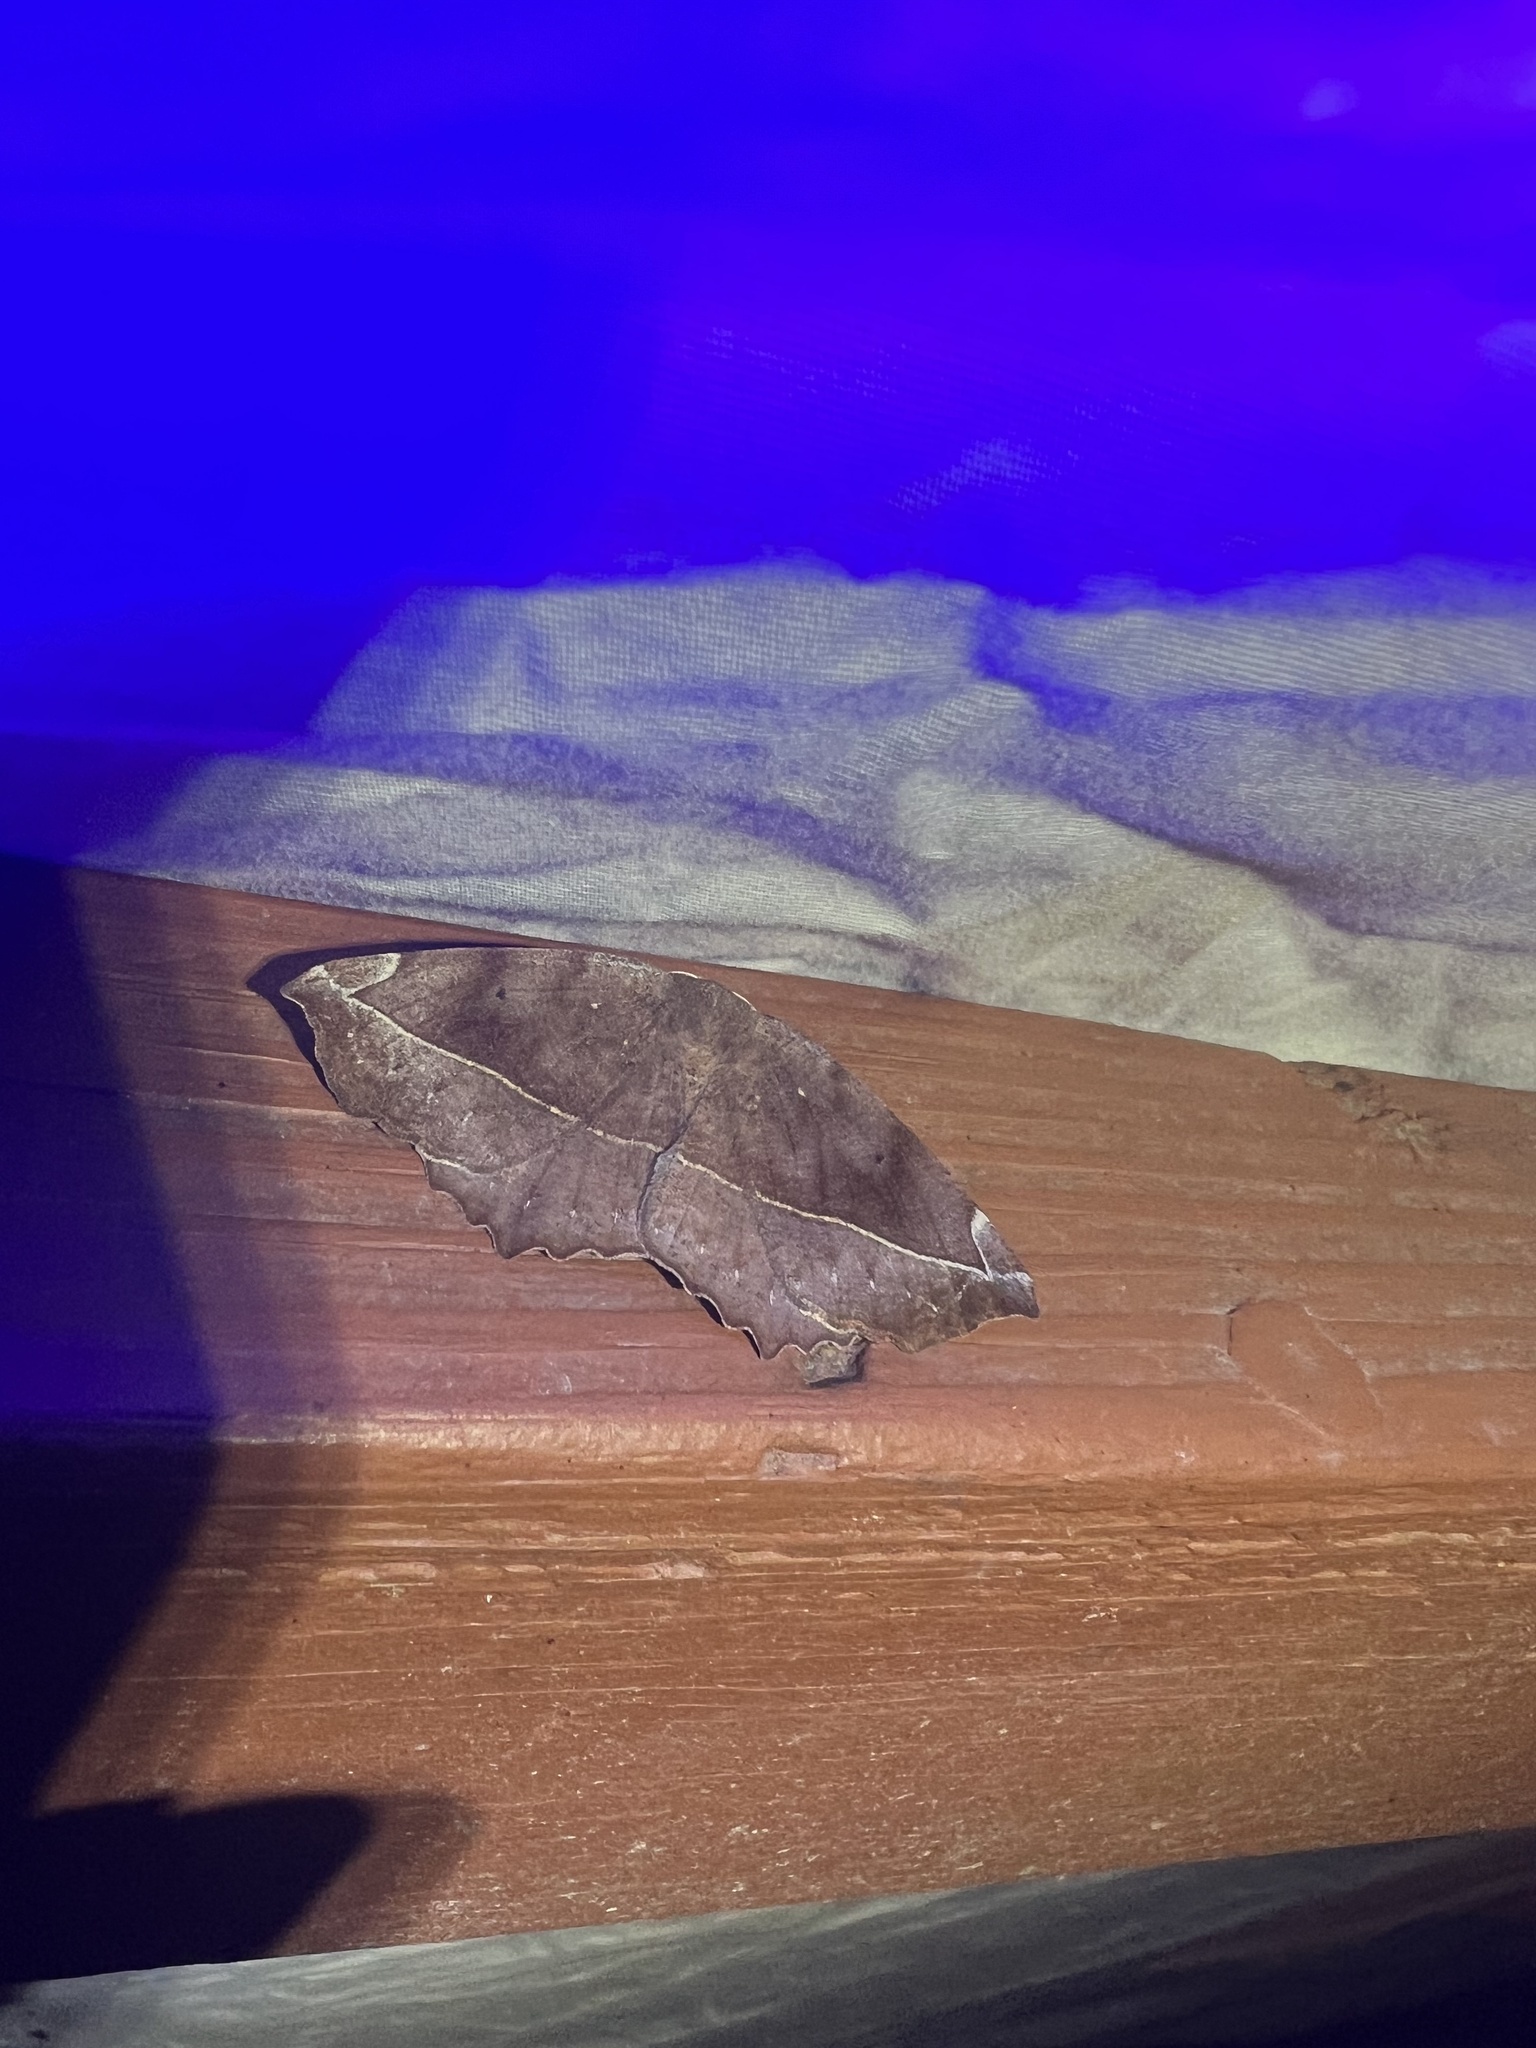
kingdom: Animalia
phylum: Arthropoda
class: Insecta
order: Lepidoptera
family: Geometridae
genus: Eutrapela
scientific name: Eutrapela clemataria
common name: Curved-toothed geometer
